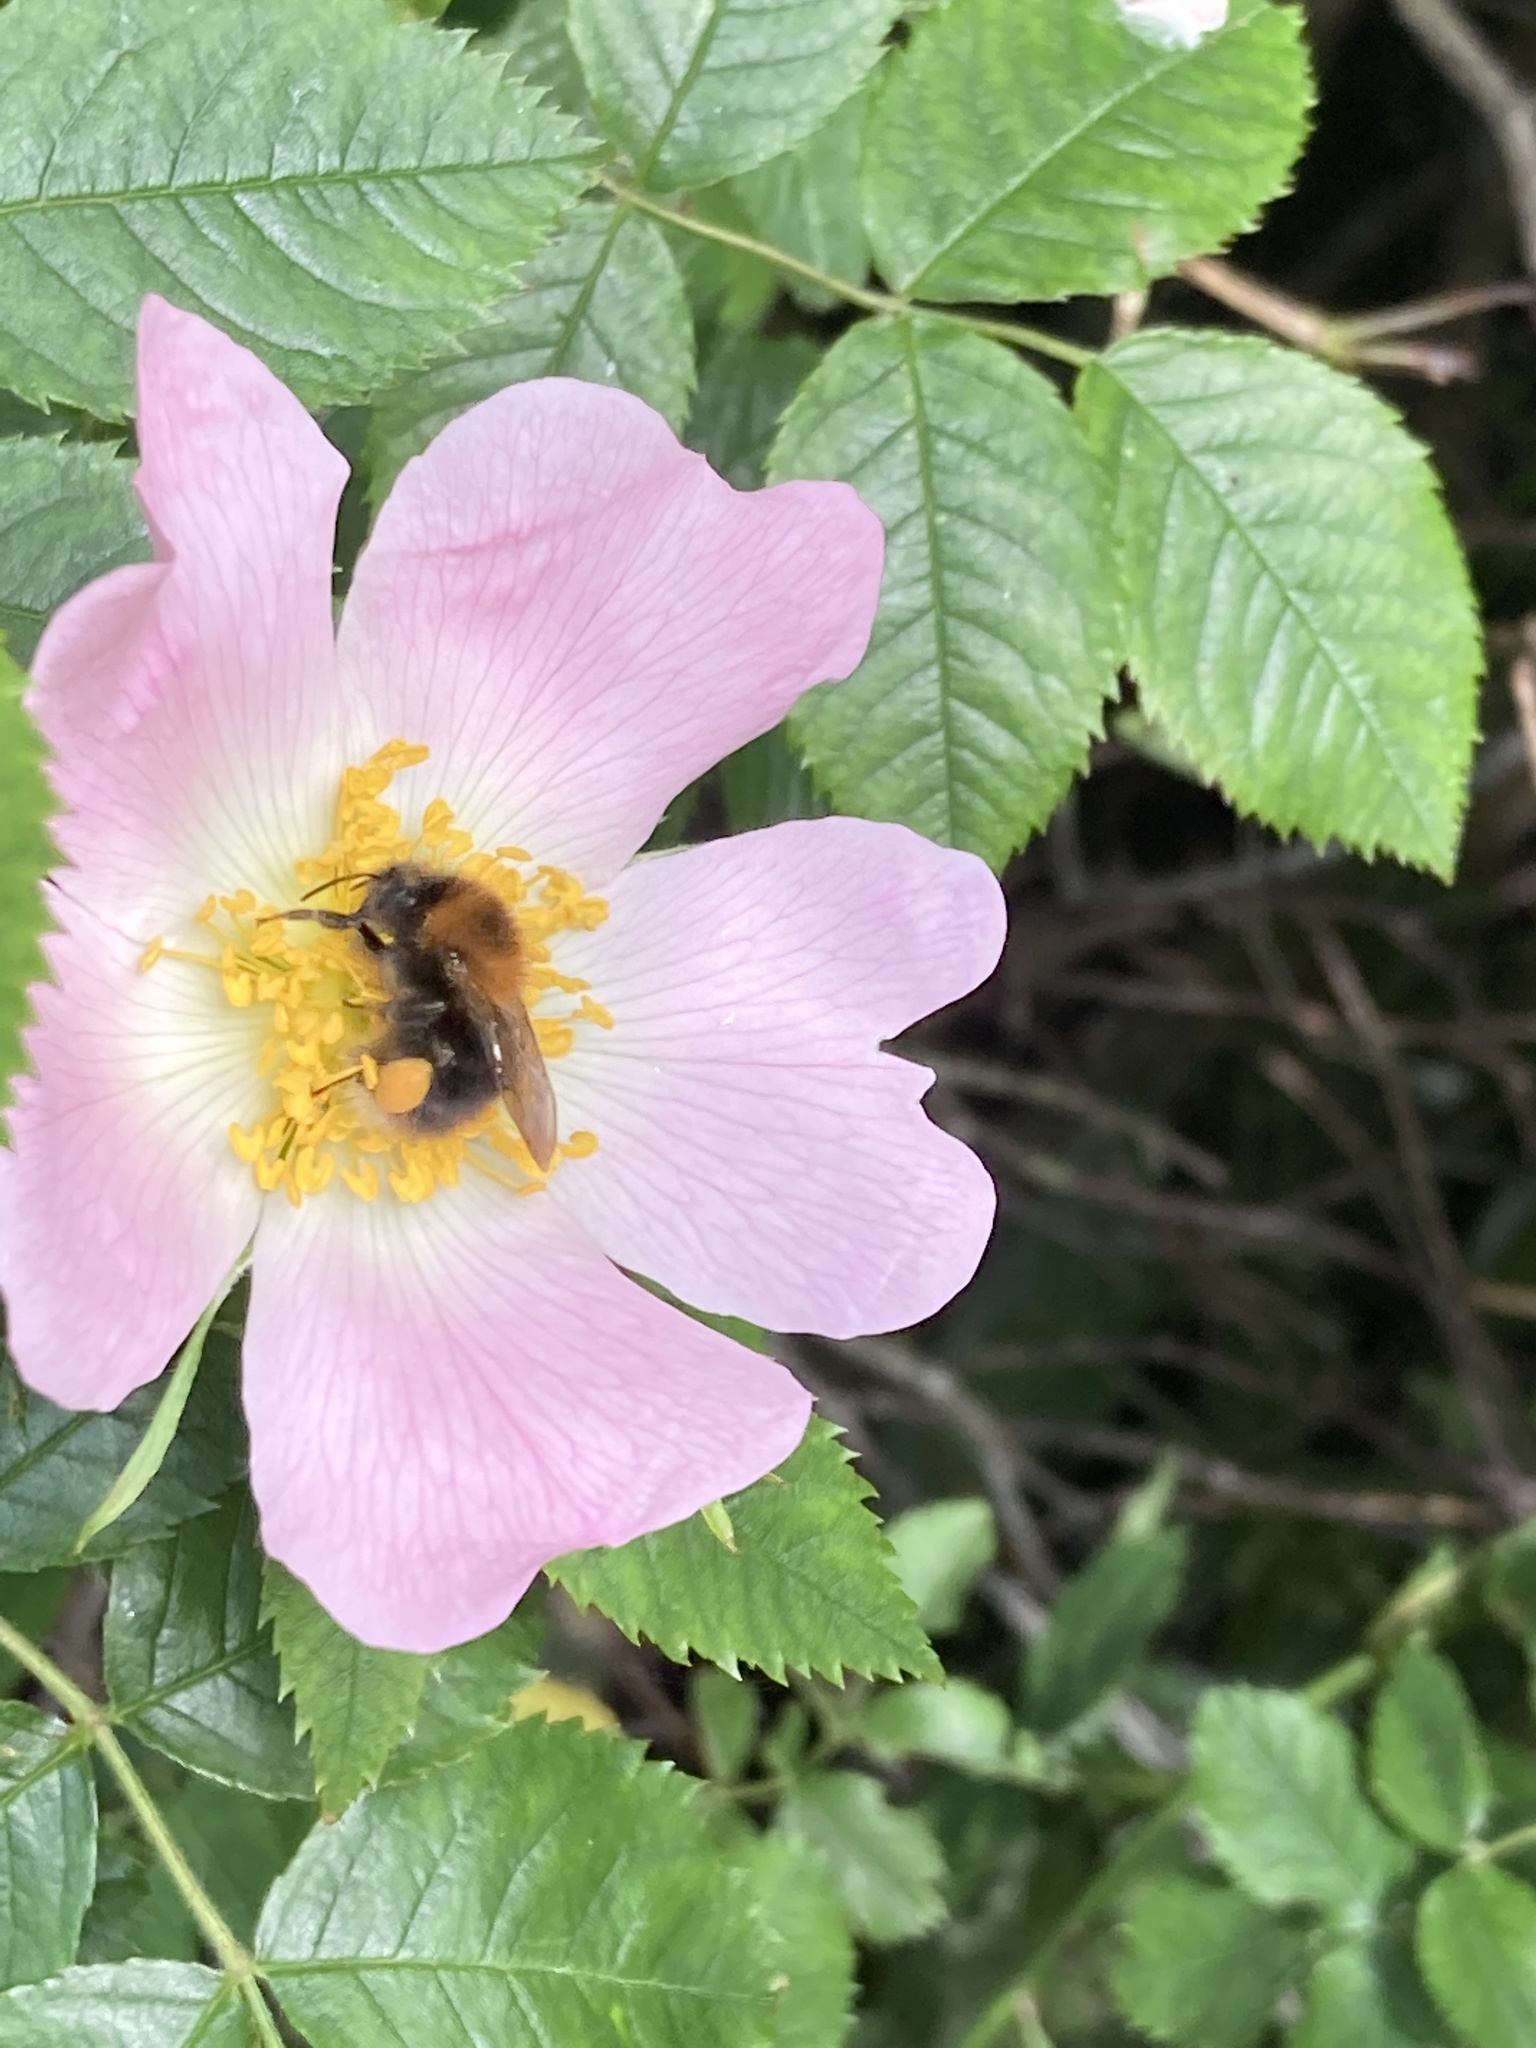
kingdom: Animalia
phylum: Arthropoda
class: Insecta
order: Hymenoptera
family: Apidae
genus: Bombus
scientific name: Bombus hypnorum
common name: New garden bumblebee
